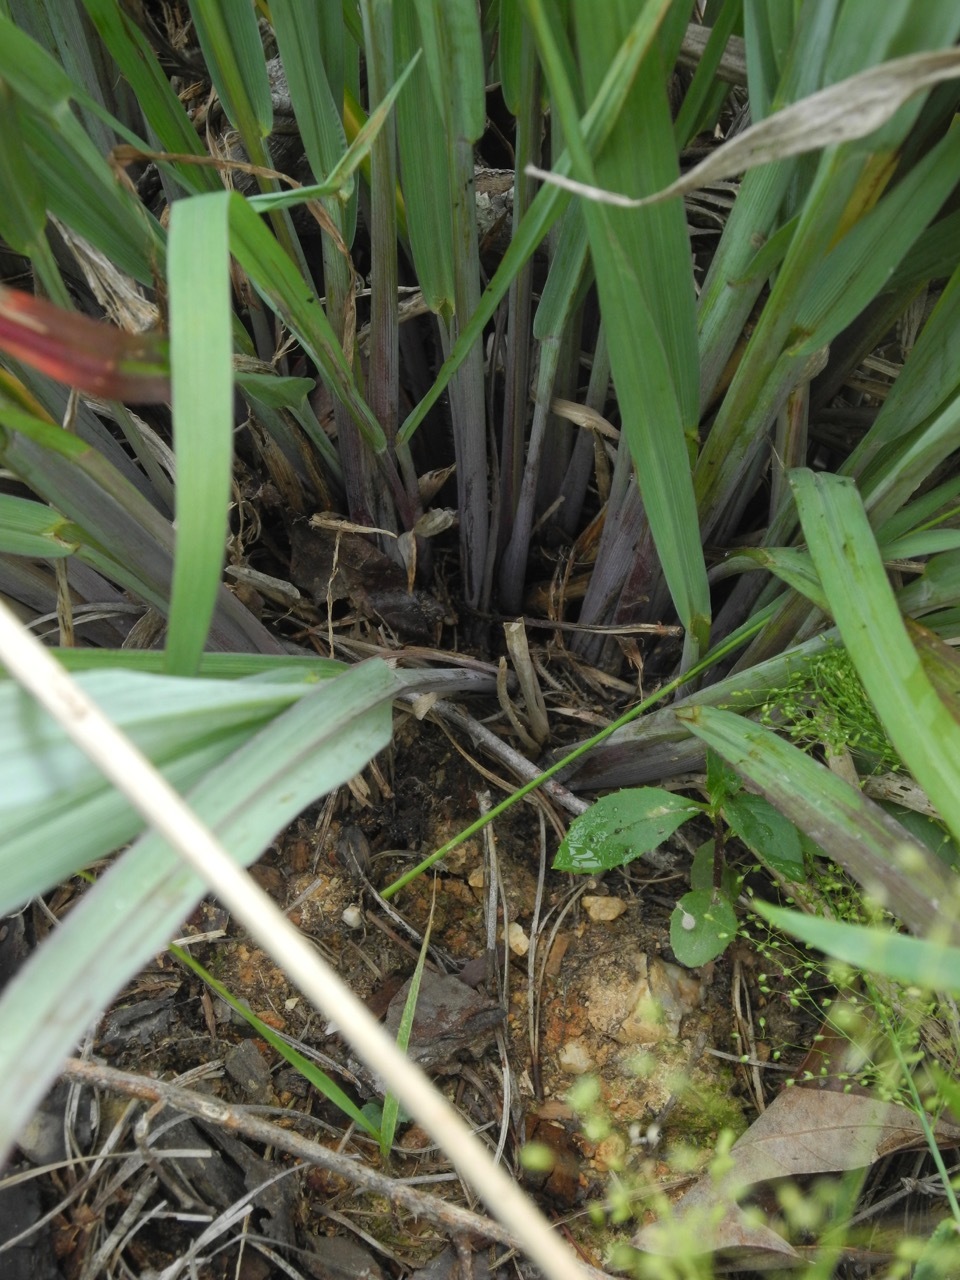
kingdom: Plantae
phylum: Tracheophyta
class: Liliopsida
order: Poales
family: Poaceae
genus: Andropogon
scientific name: Andropogon gerardi
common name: Big bluestem
